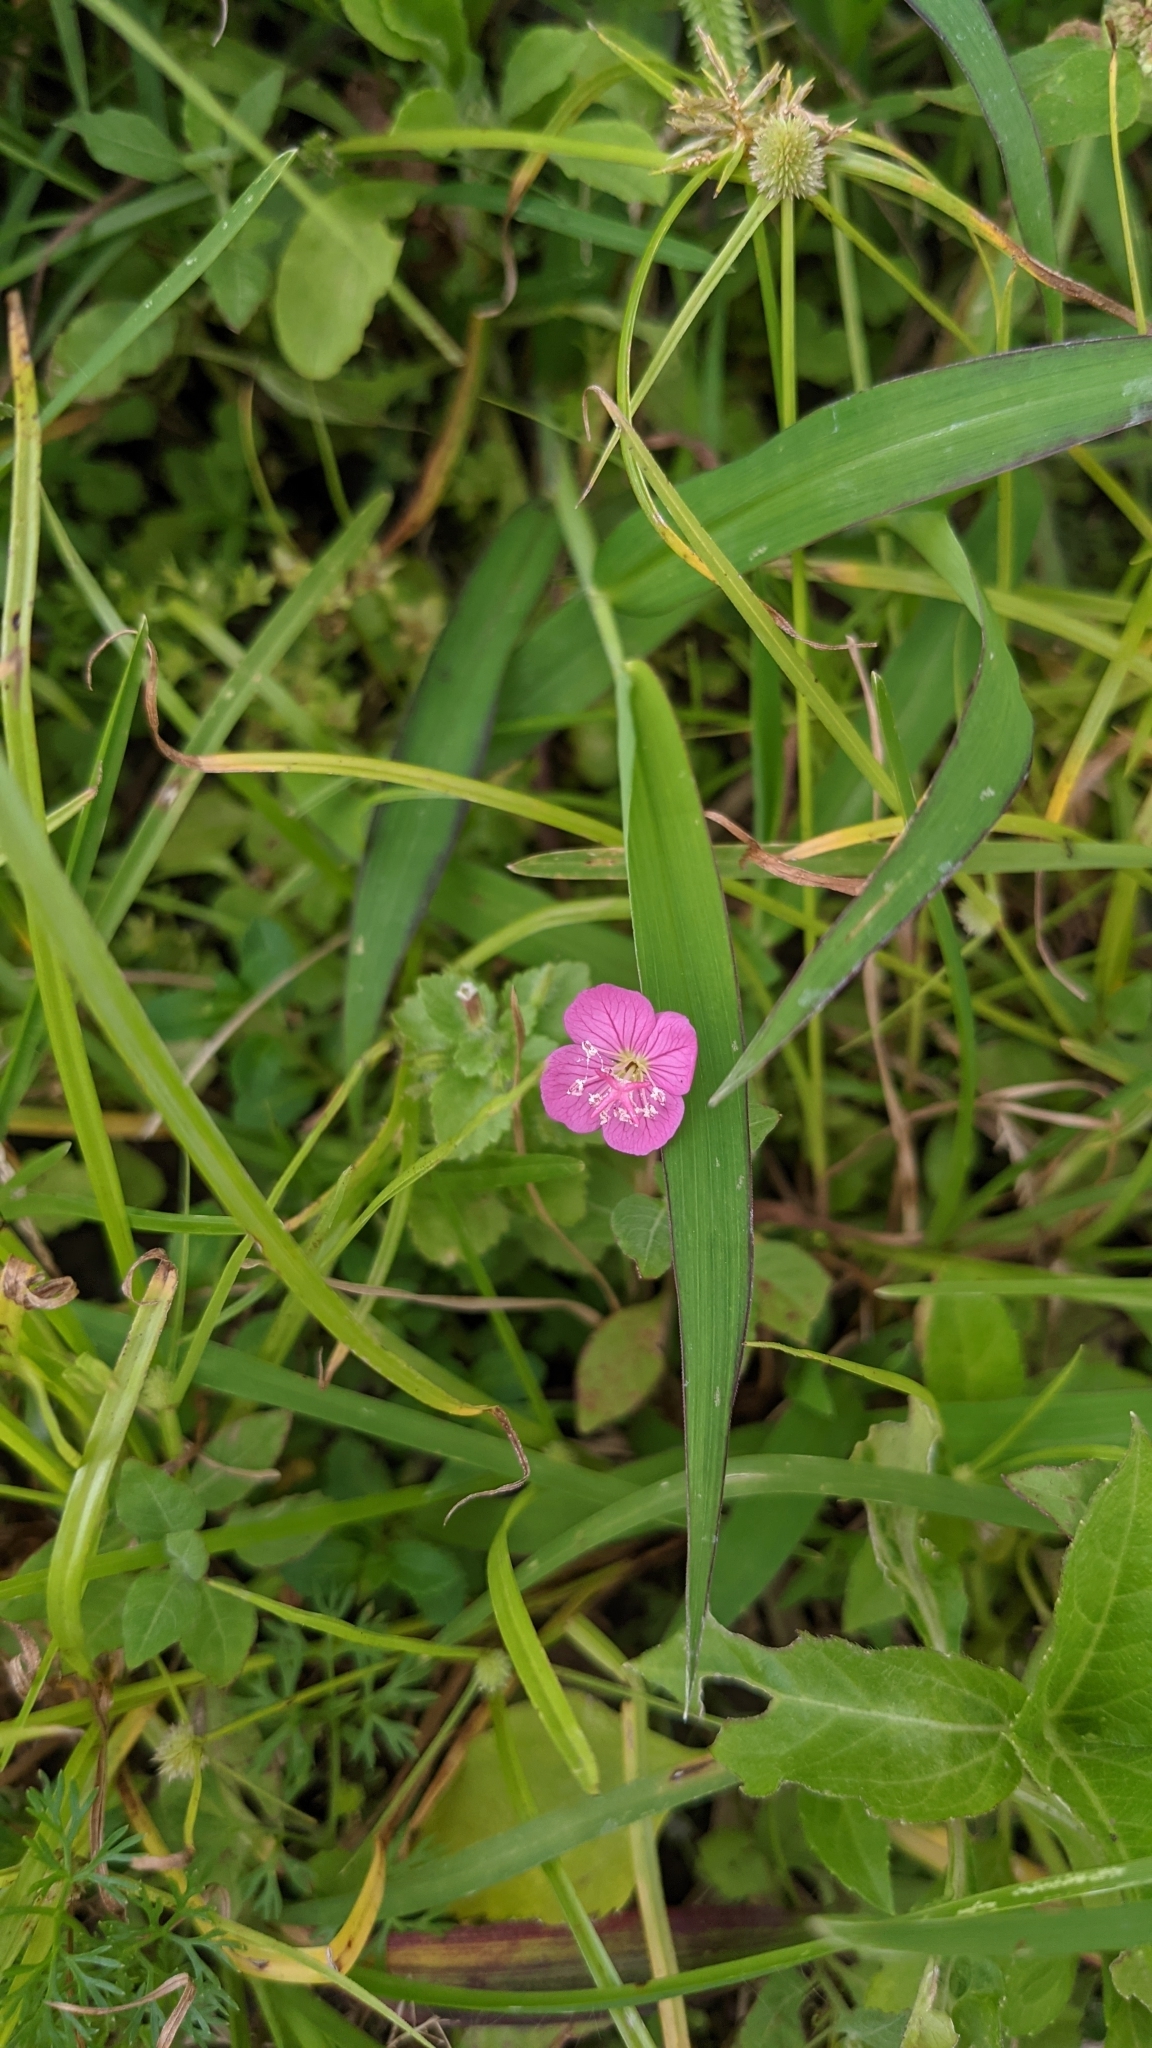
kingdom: Plantae
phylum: Tracheophyta
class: Magnoliopsida
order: Myrtales
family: Onagraceae
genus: Oenothera
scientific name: Oenothera rosea
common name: Rosy evening-primrose
